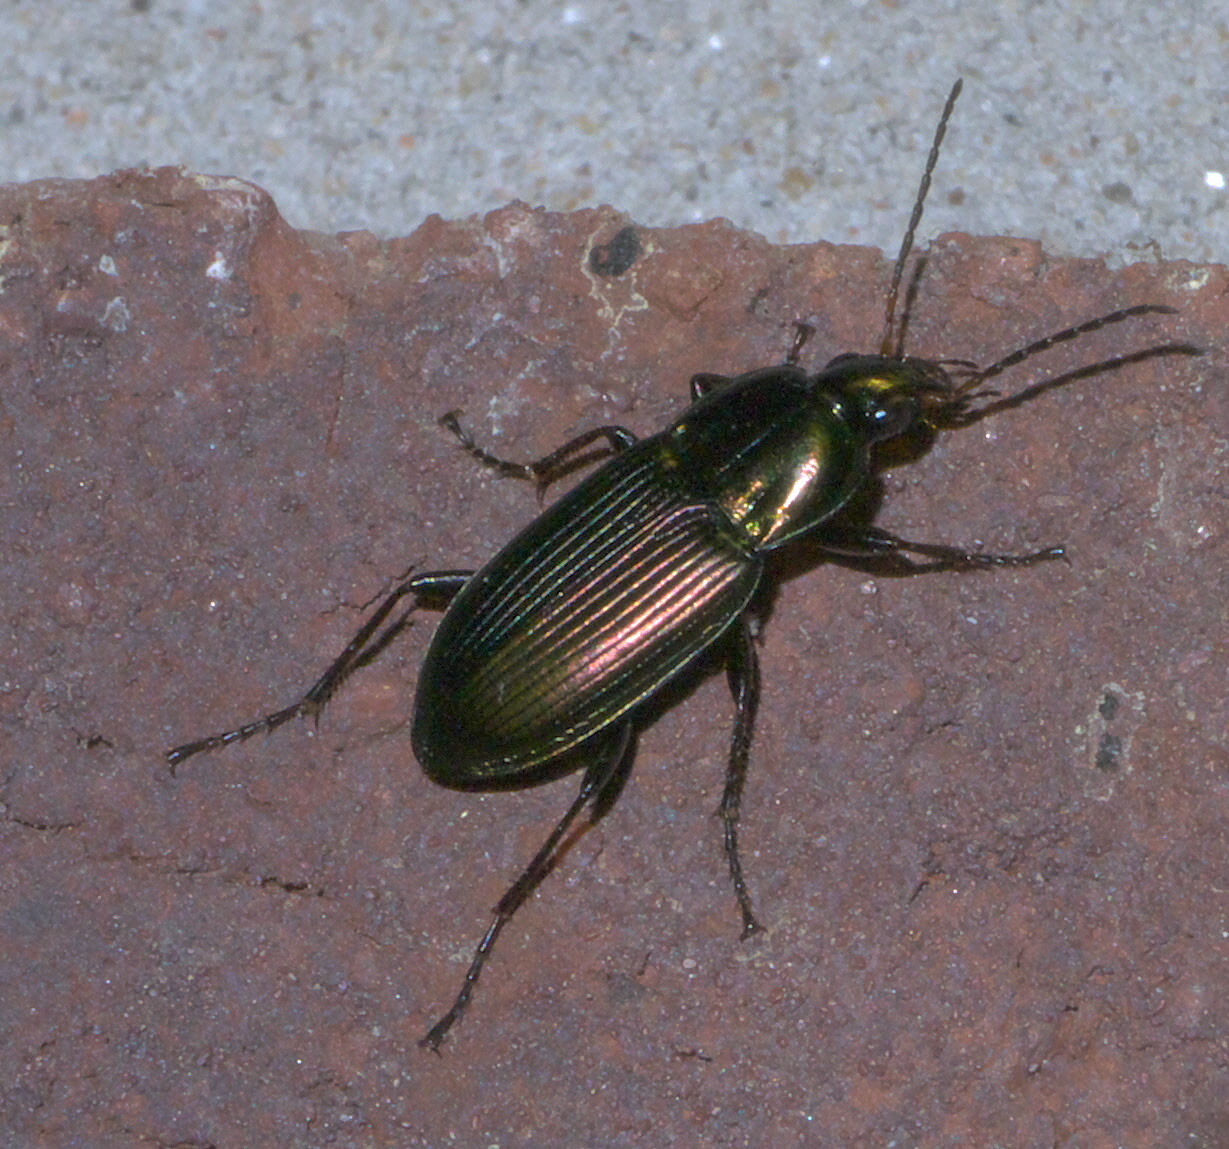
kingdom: Animalia
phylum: Arthropoda
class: Insecta
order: Coleoptera
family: Carabidae
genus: Poecilus
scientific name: Poecilus chalcites
